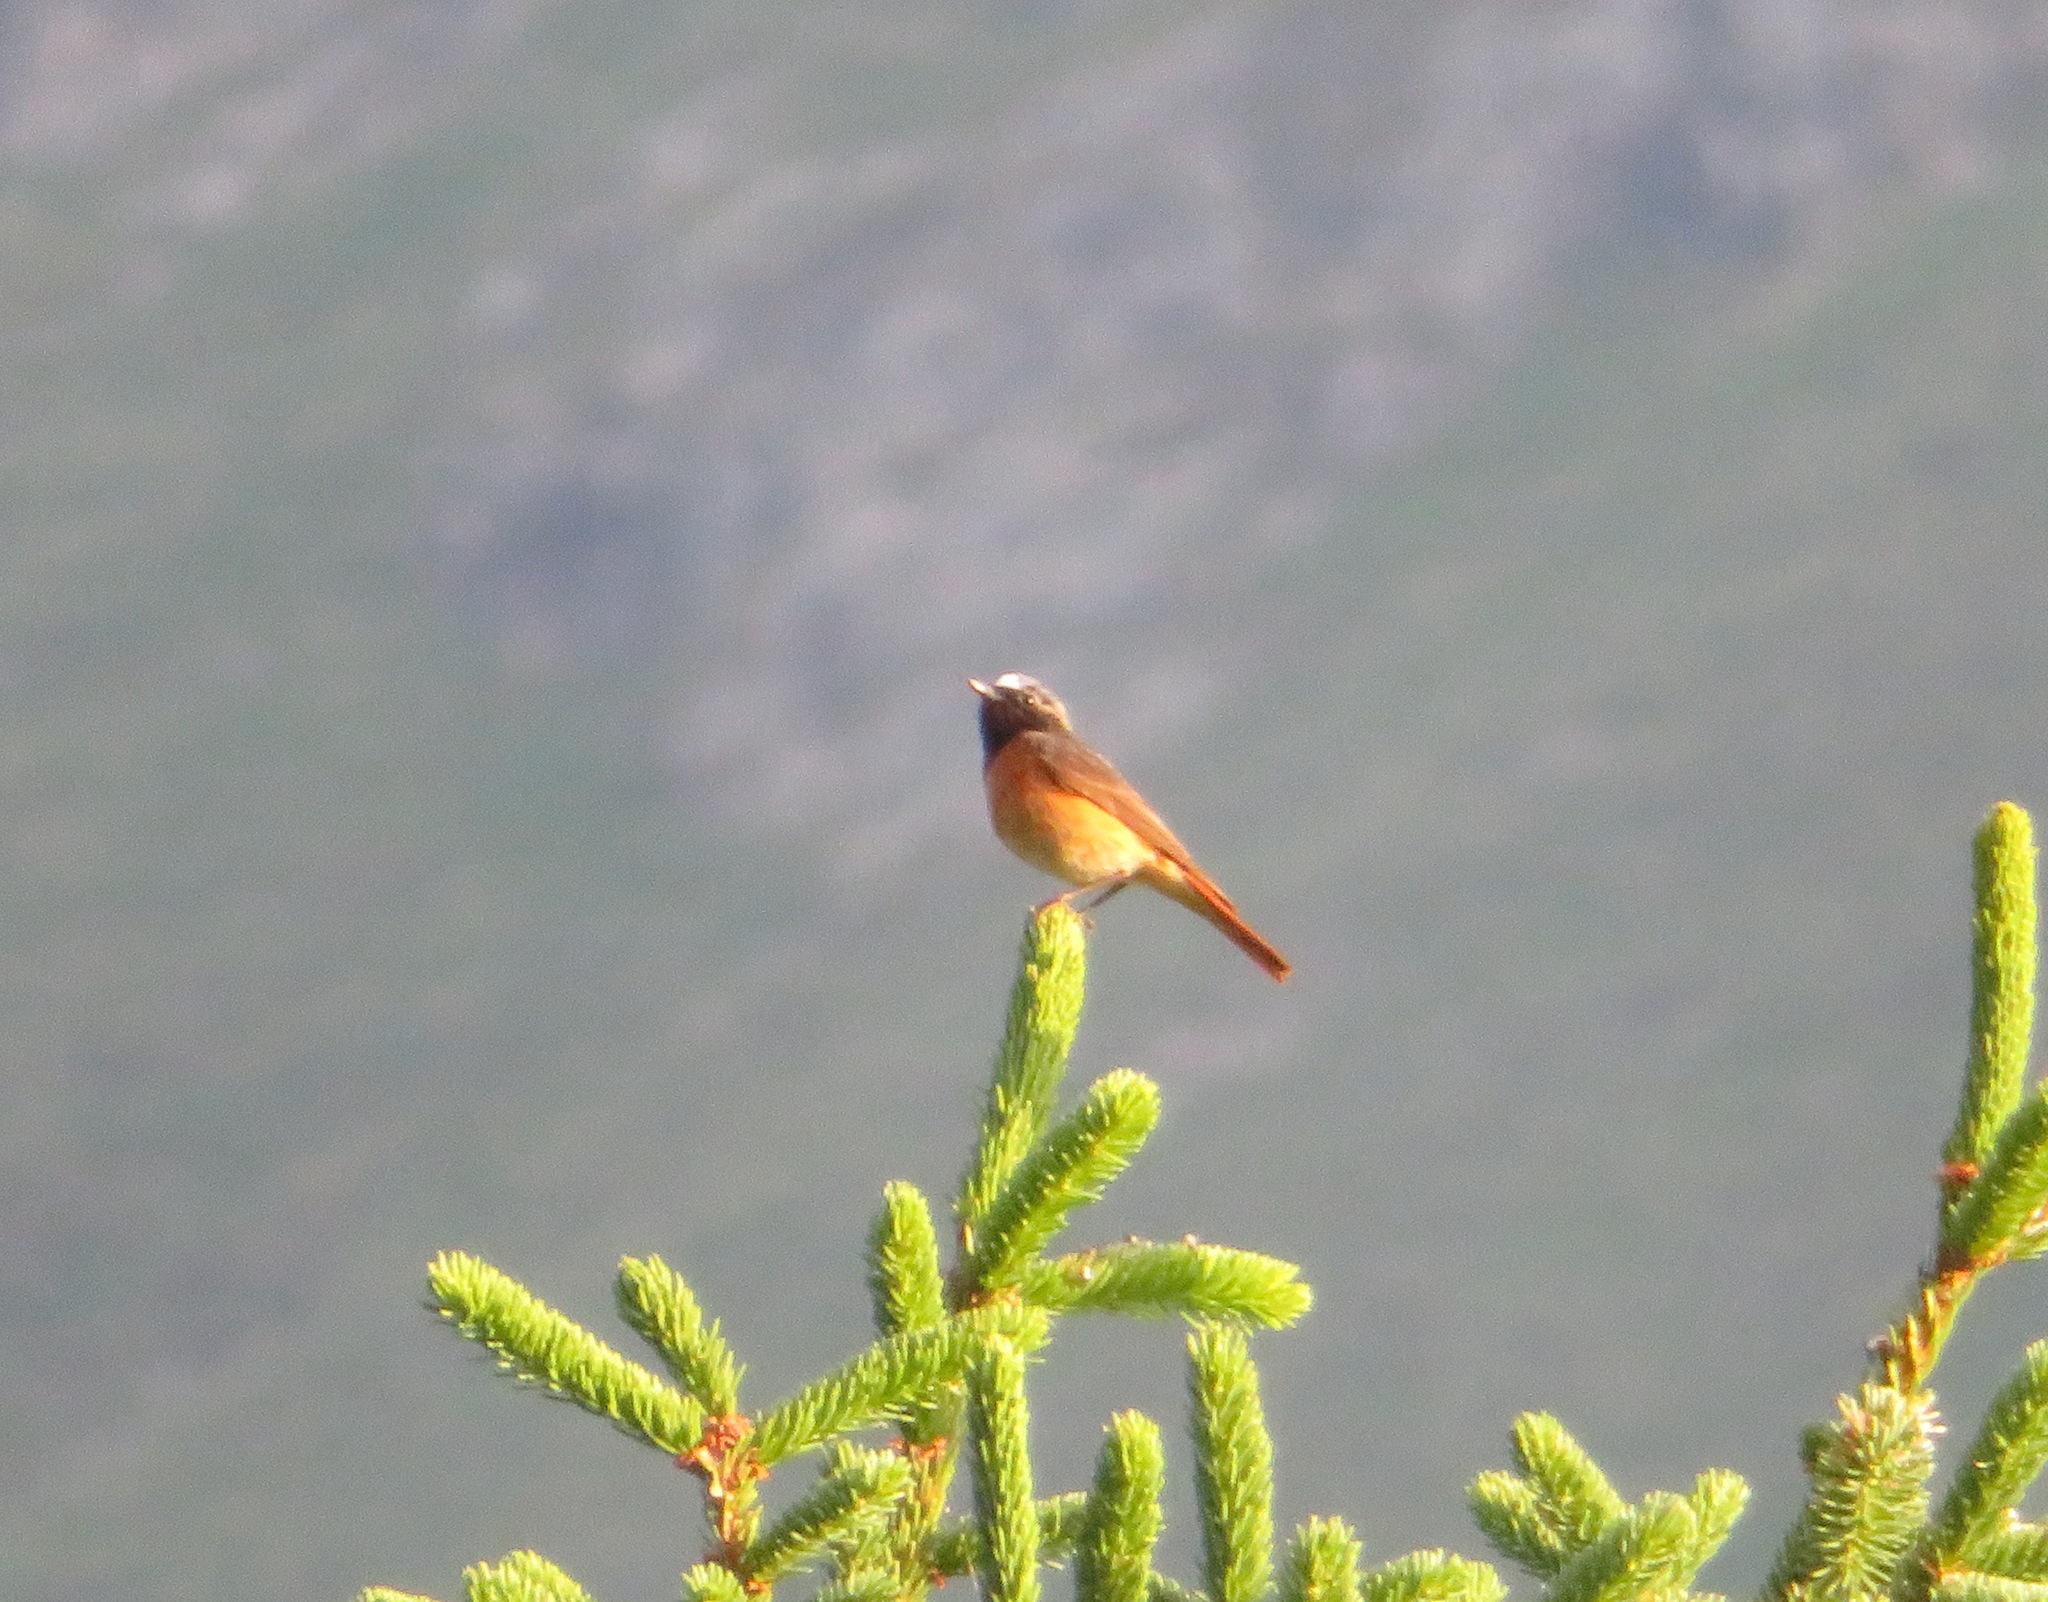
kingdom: Animalia
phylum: Chordata
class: Aves
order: Passeriformes
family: Muscicapidae
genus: Phoenicurus
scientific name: Phoenicurus phoenicurus
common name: Common redstart
